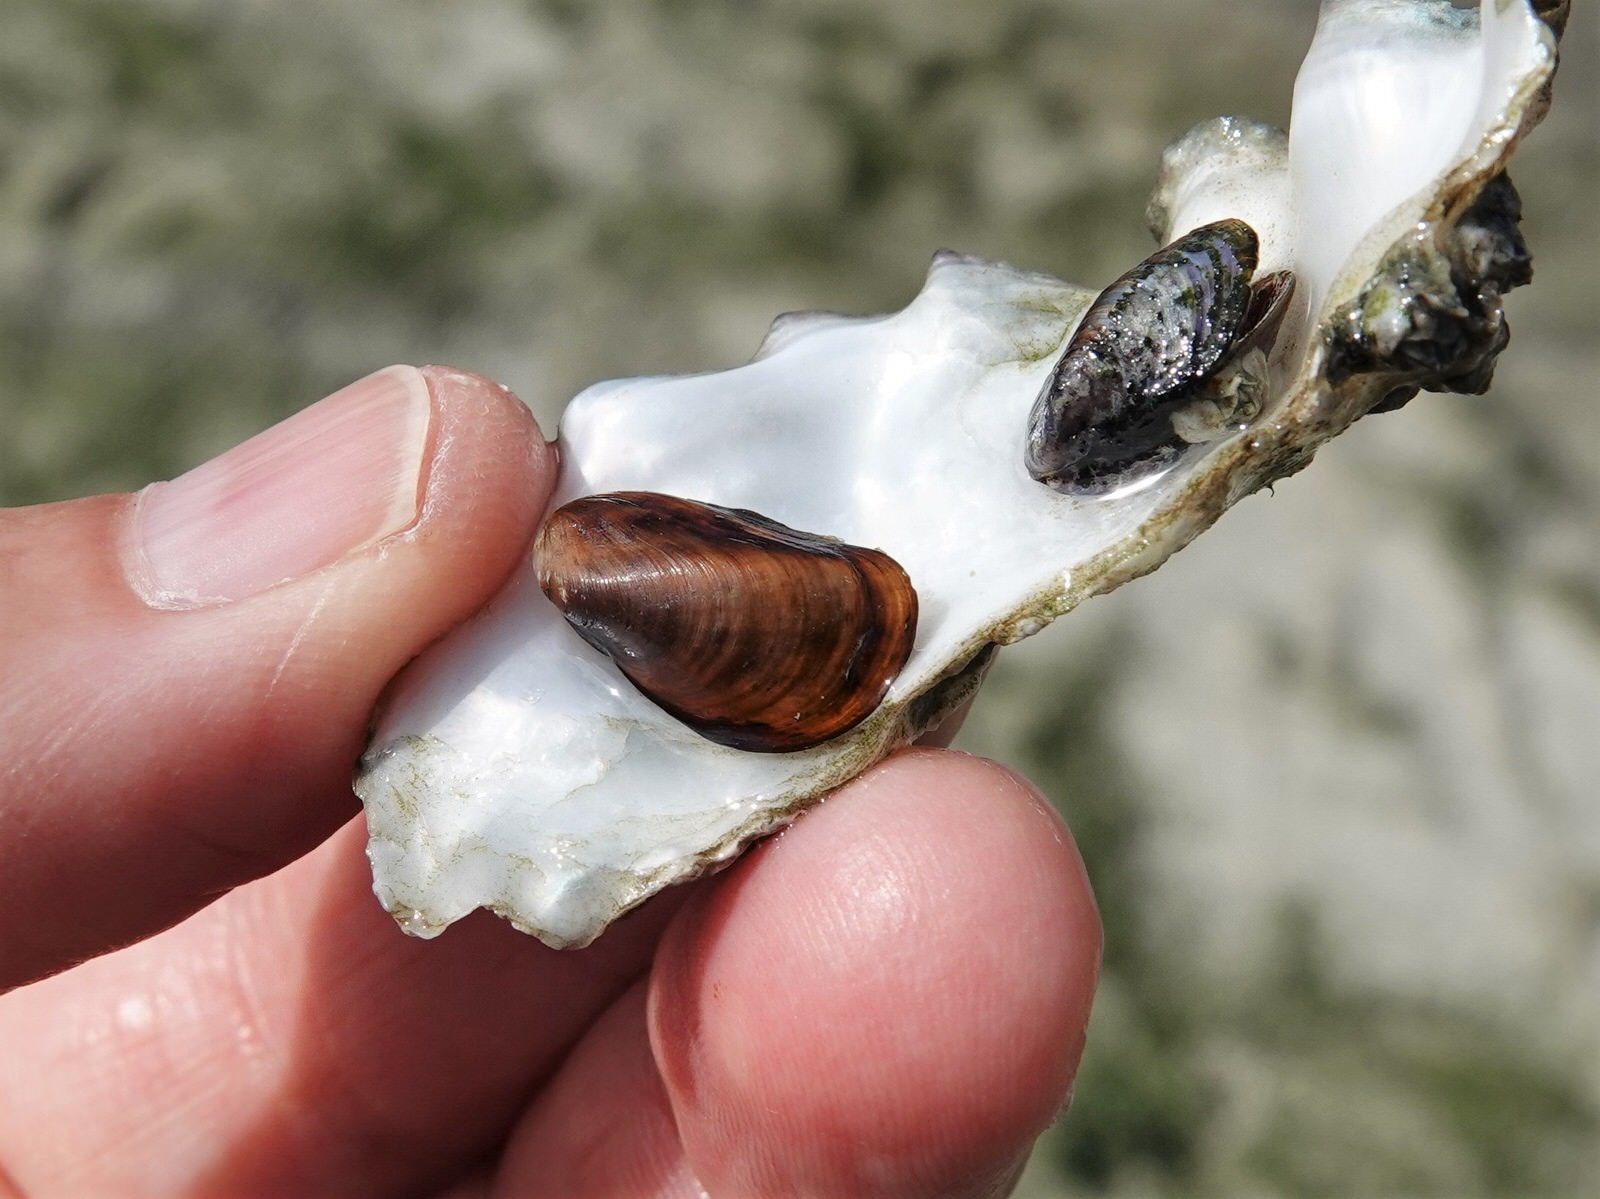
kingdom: Animalia
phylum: Mollusca
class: Bivalvia
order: Mytilida
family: Mytilidae
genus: Xenostrobus
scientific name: Xenostrobus securis
